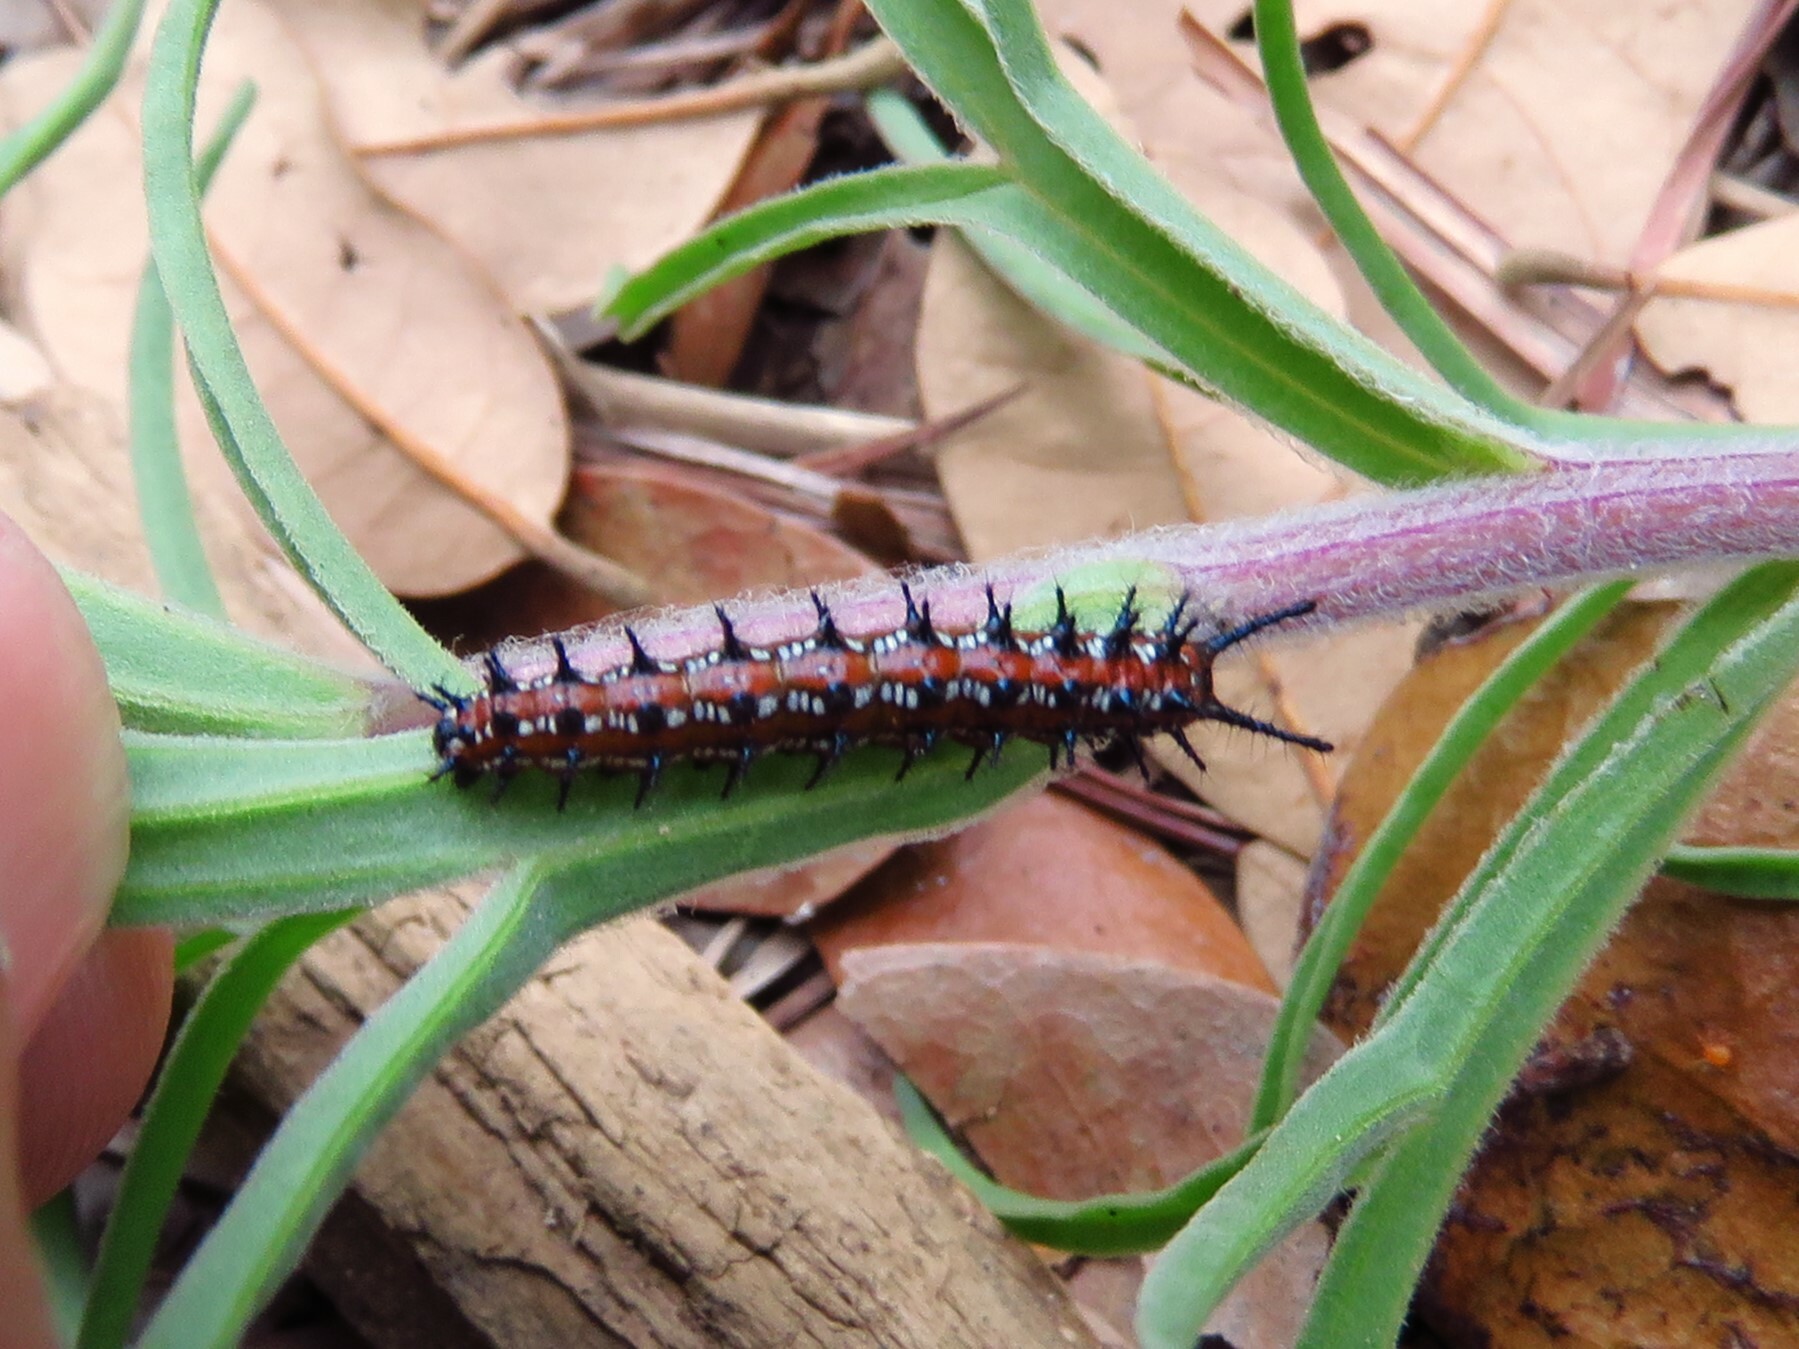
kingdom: Animalia
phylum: Arthropoda
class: Insecta
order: Lepidoptera
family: Nymphalidae
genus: Euptoieta
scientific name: Euptoieta claudia
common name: Variegated fritillary
